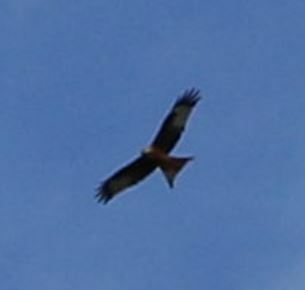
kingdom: Animalia
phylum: Chordata
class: Aves
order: Accipitriformes
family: Accipitridae
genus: Milvus
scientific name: Milvus milvus
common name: Red kite
